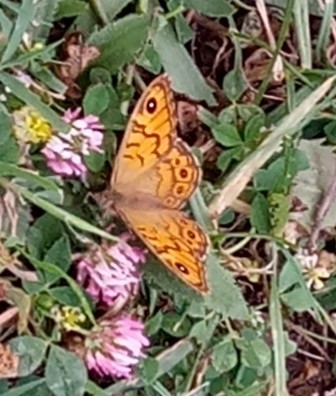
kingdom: Animalia
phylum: Arthropoda
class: Insecta
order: Lepidoptera
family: Nymphalidae
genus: Pararge
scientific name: Pararge Lasiommata megera
